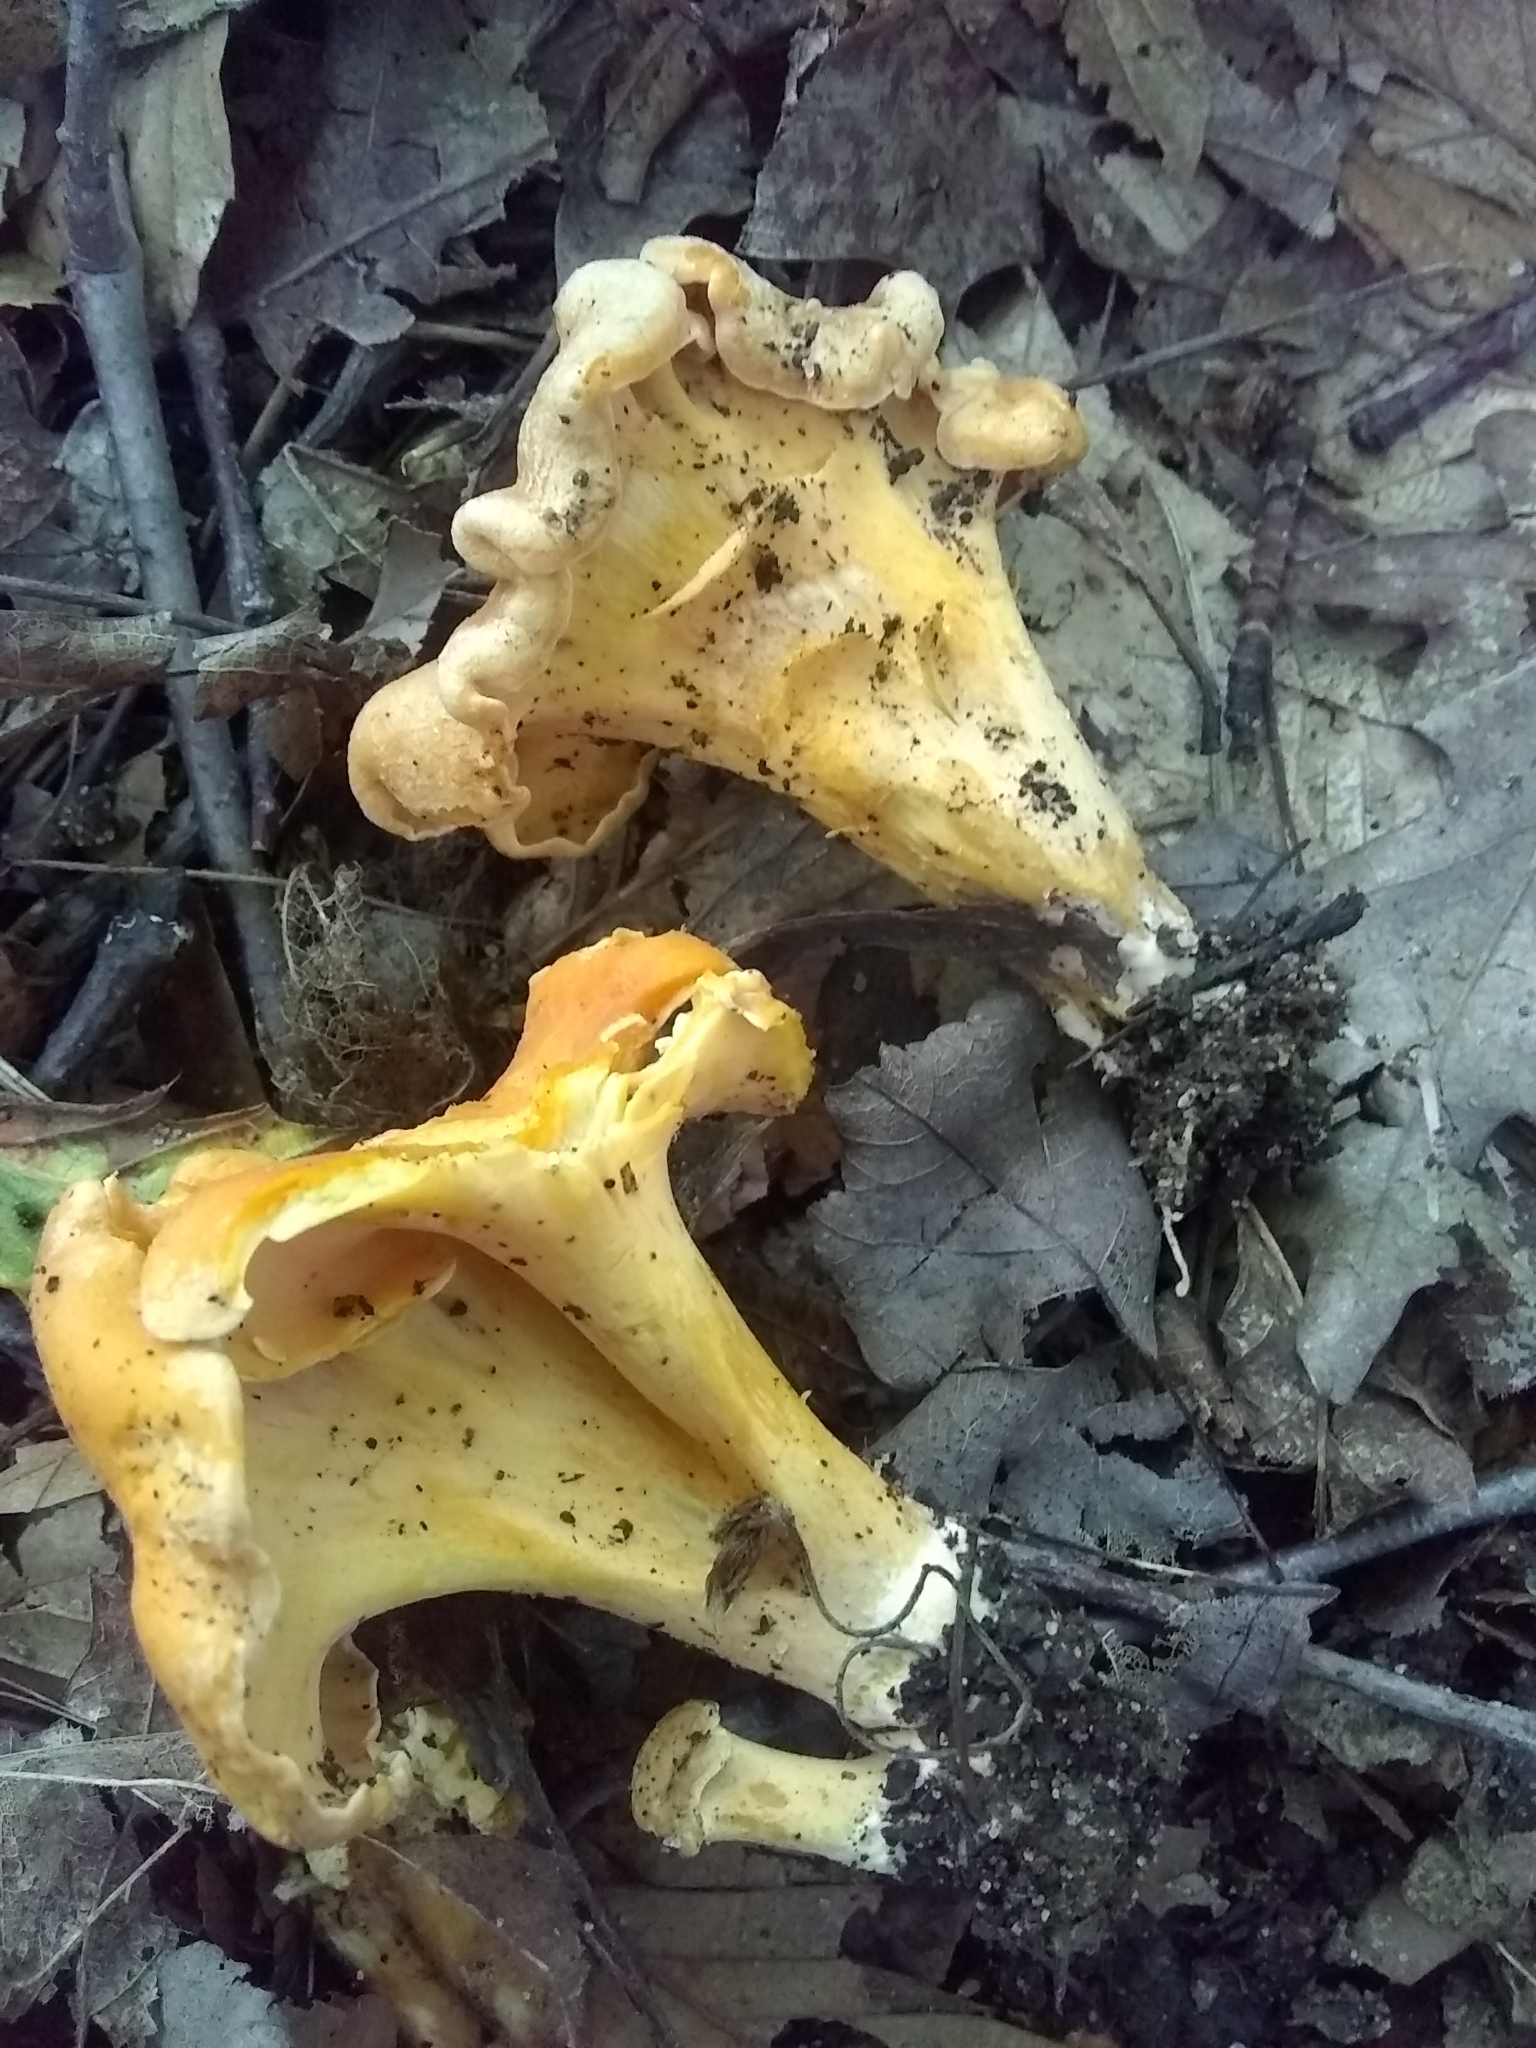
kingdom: Fungi
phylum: Basidiomycota
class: Agaricomycetes
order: Cantharellales
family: Hydnaceae
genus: Cantharellus
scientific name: Cantharellus flavolateritius
